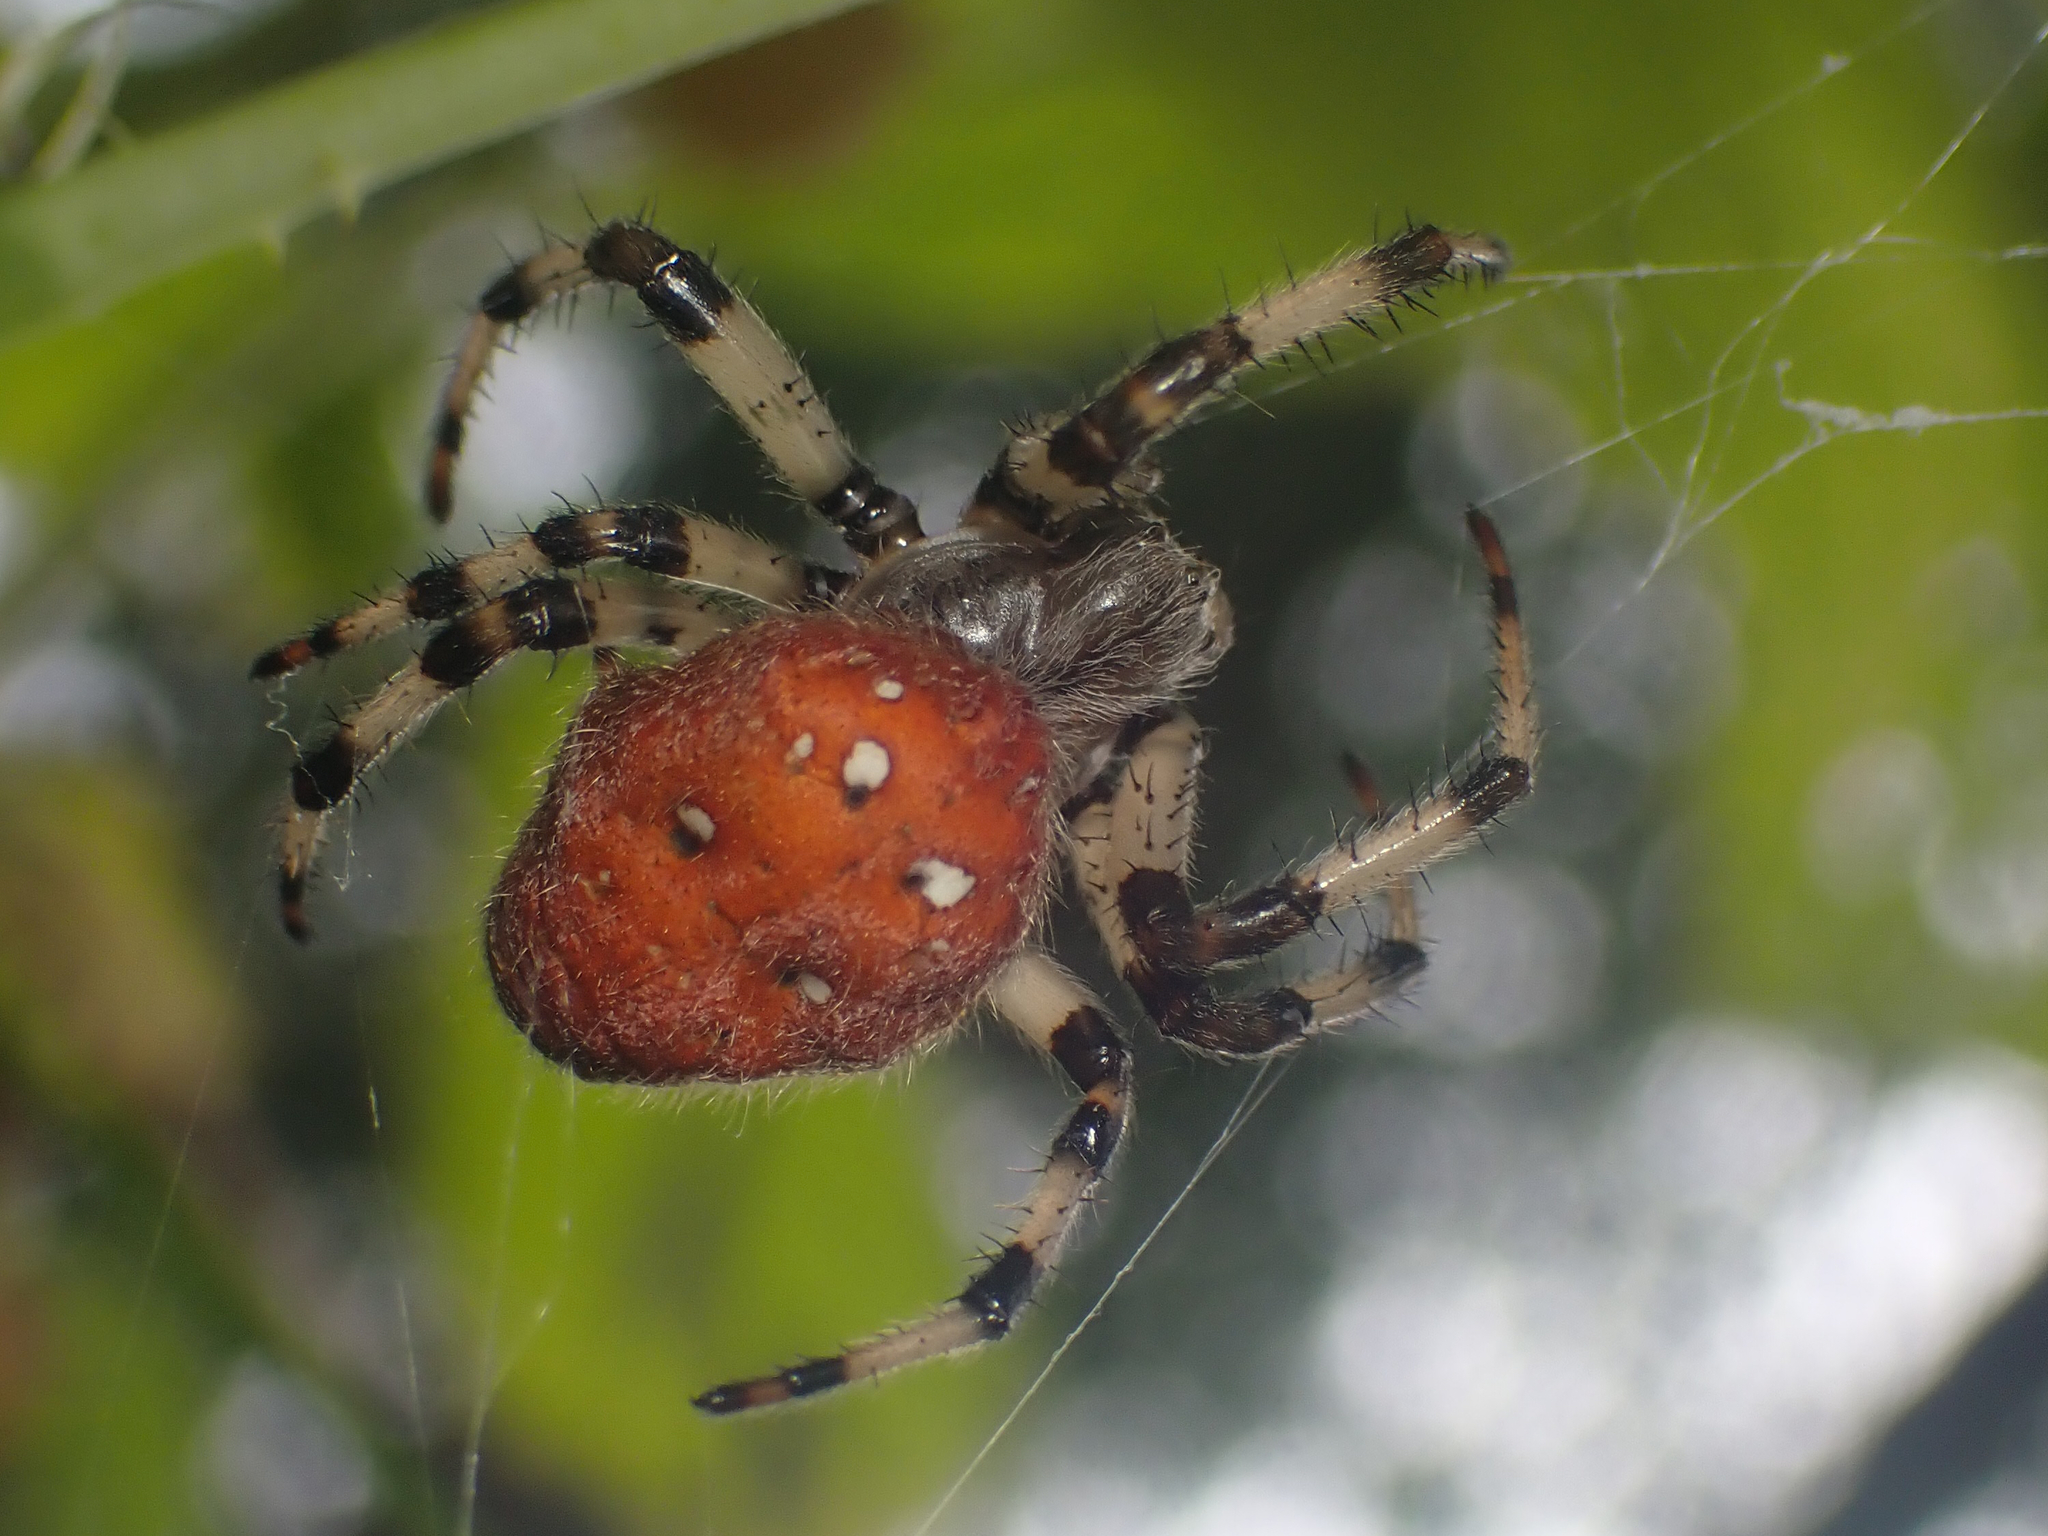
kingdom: Animalia
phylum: Arthropoda
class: Arachnida
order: Araneae
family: Araneidae
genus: Araneus
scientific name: Araneus trifolium
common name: Shamrock orbweaver
